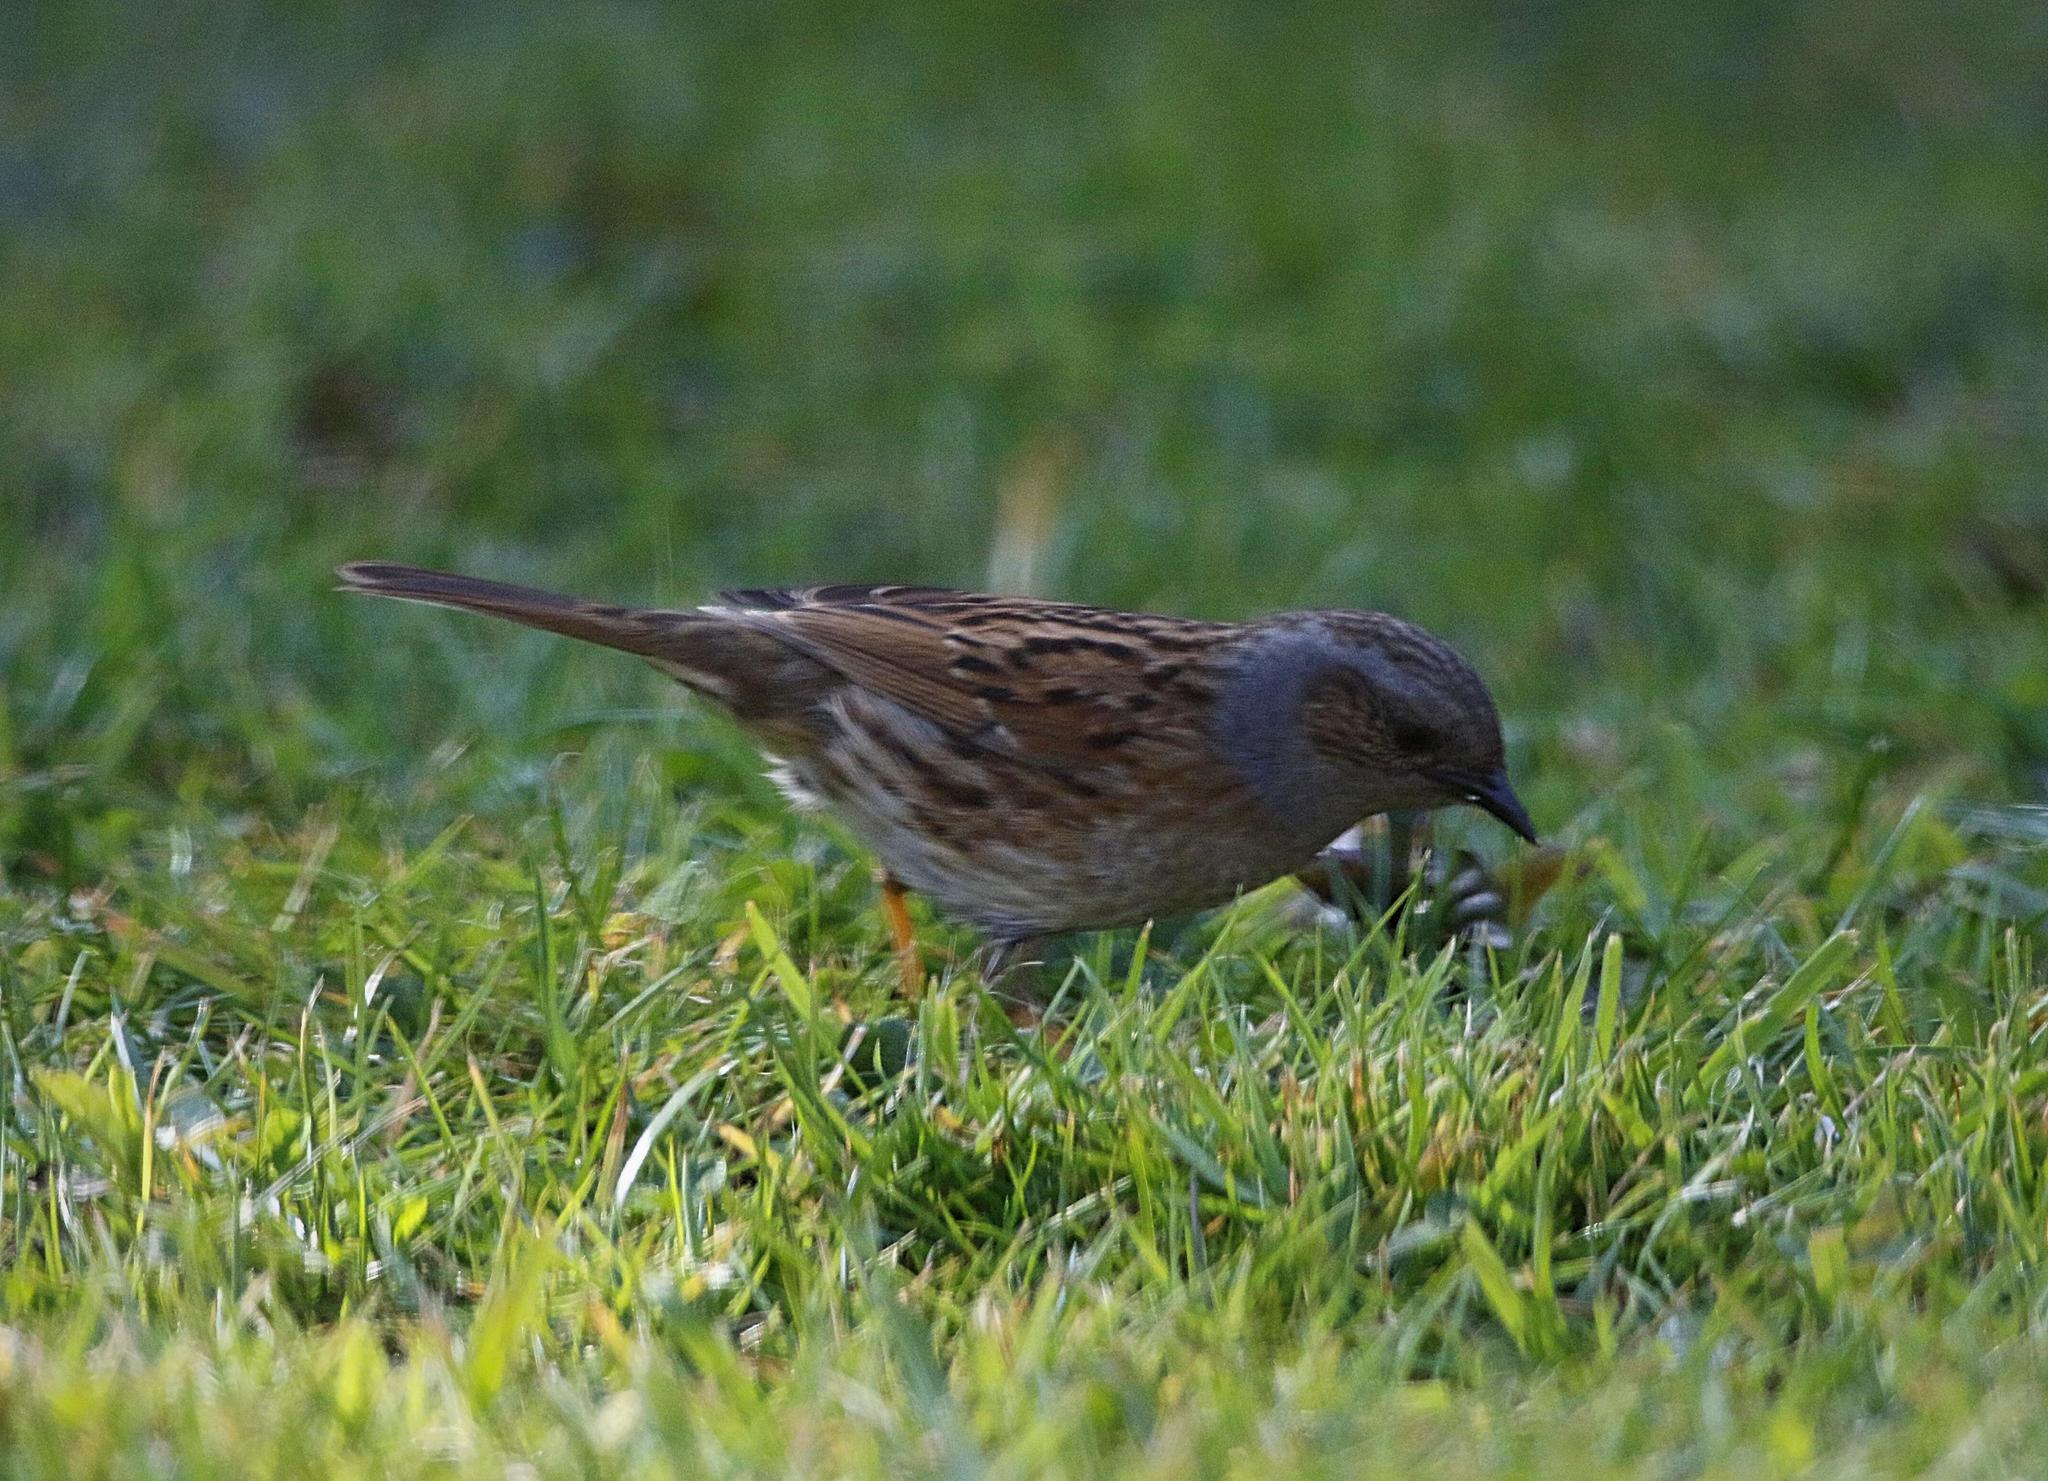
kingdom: Animalia
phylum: Chordata
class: Aves
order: Passeriformes
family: Prunellidae
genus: Prunella
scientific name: Prunella modularis
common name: Dunnock
